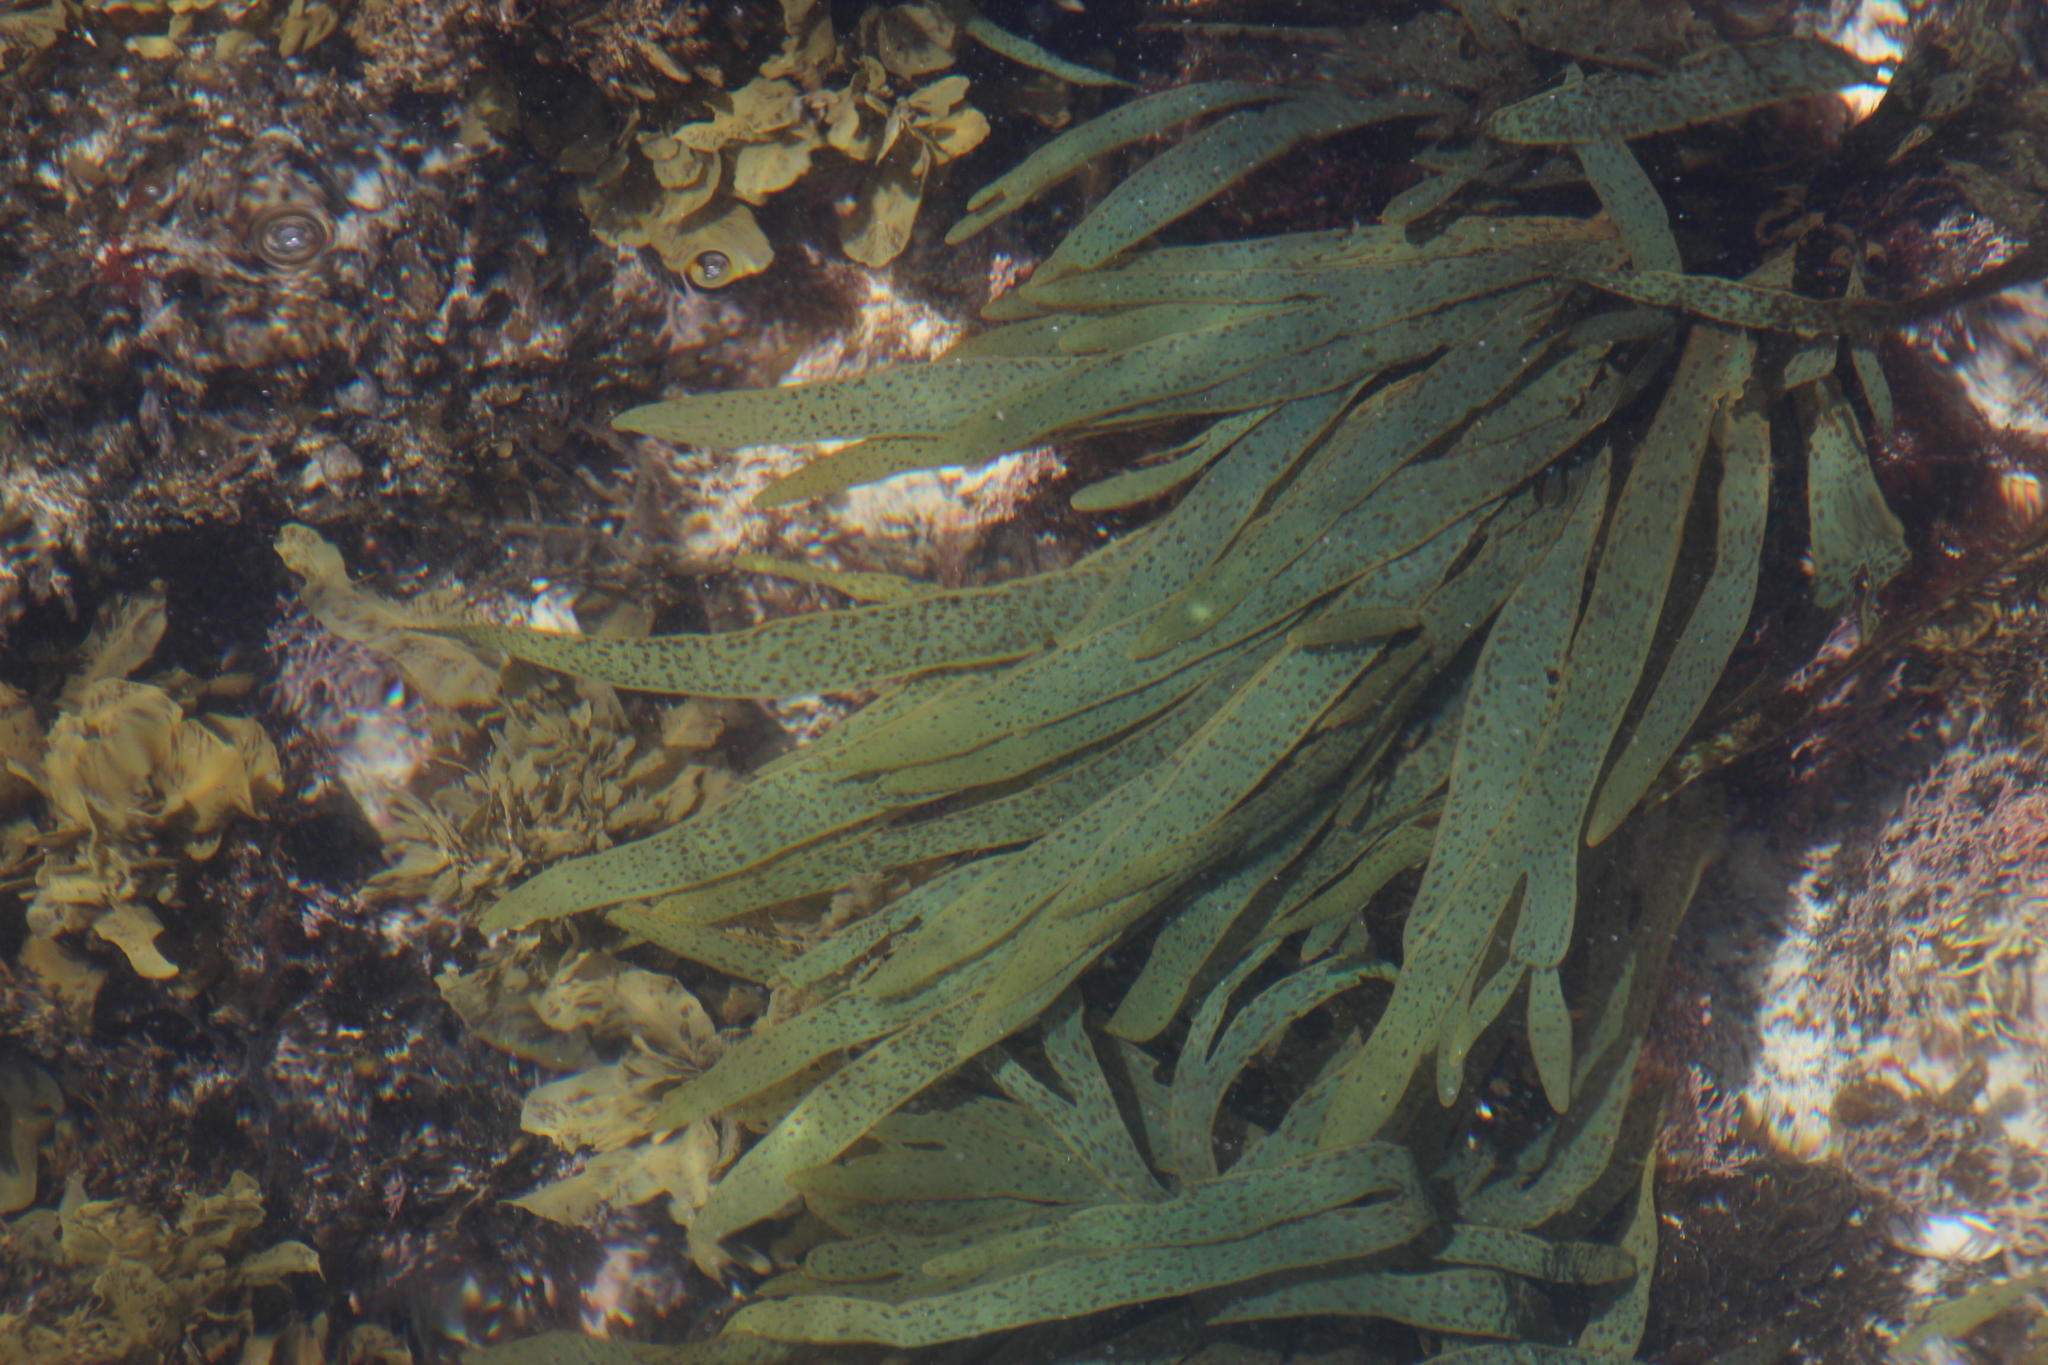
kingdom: Chromista
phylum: Ochrophyta
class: Phaeophyceae
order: Dictyotales
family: Dictyotaceae
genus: Dictyota
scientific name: Dictyota
